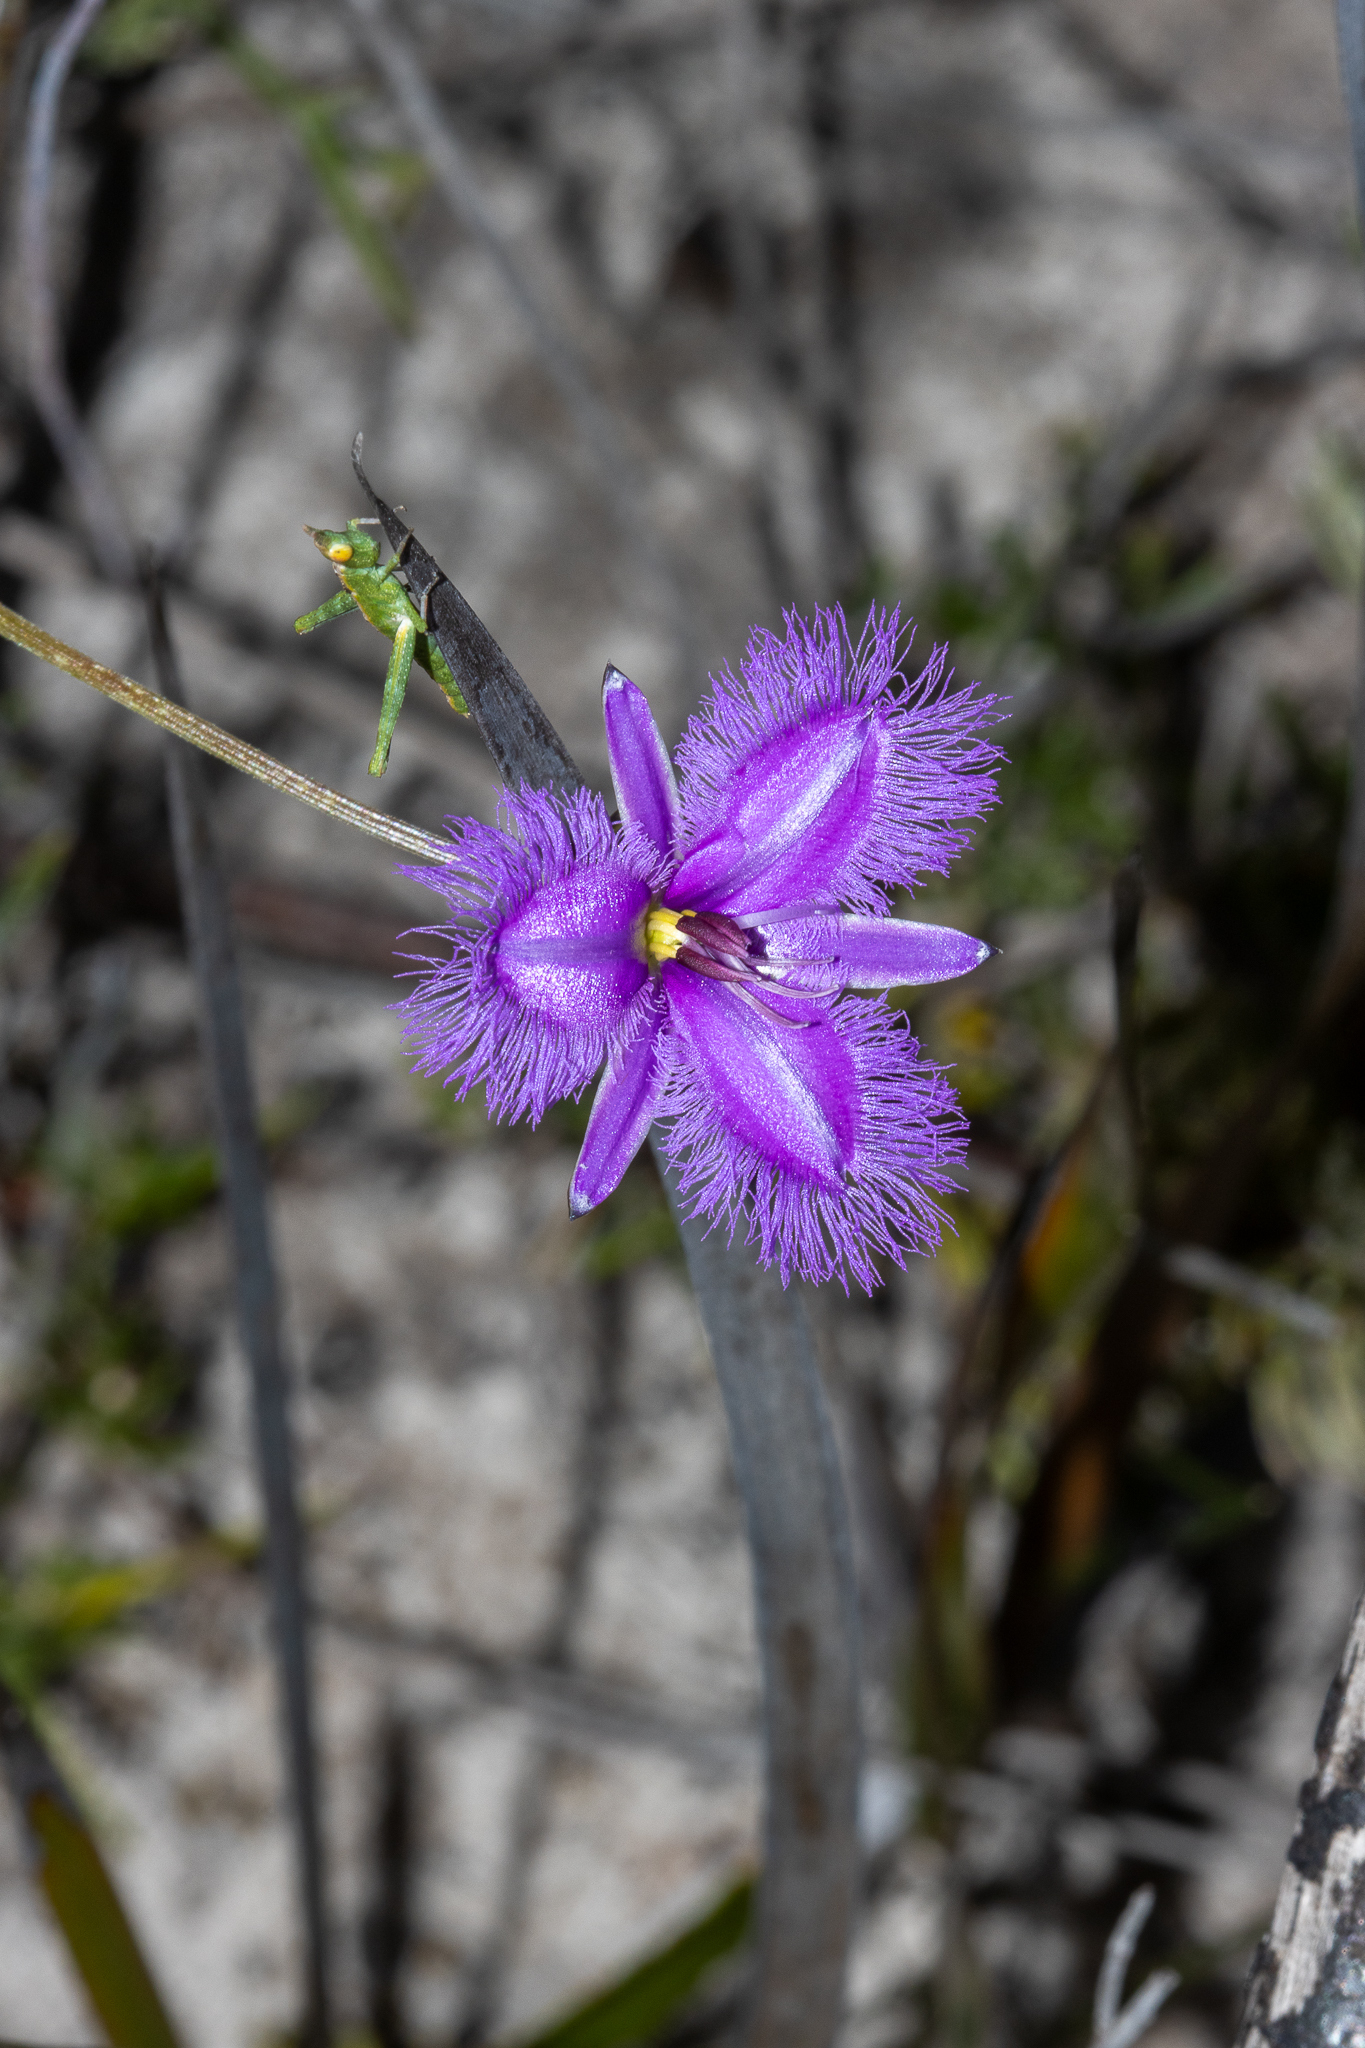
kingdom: Plantae
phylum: Tracheophyta
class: Liliopsida
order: Asparagales
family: Asparagaceae
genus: Thysanotus
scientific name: Thysanotus fractiflexus
